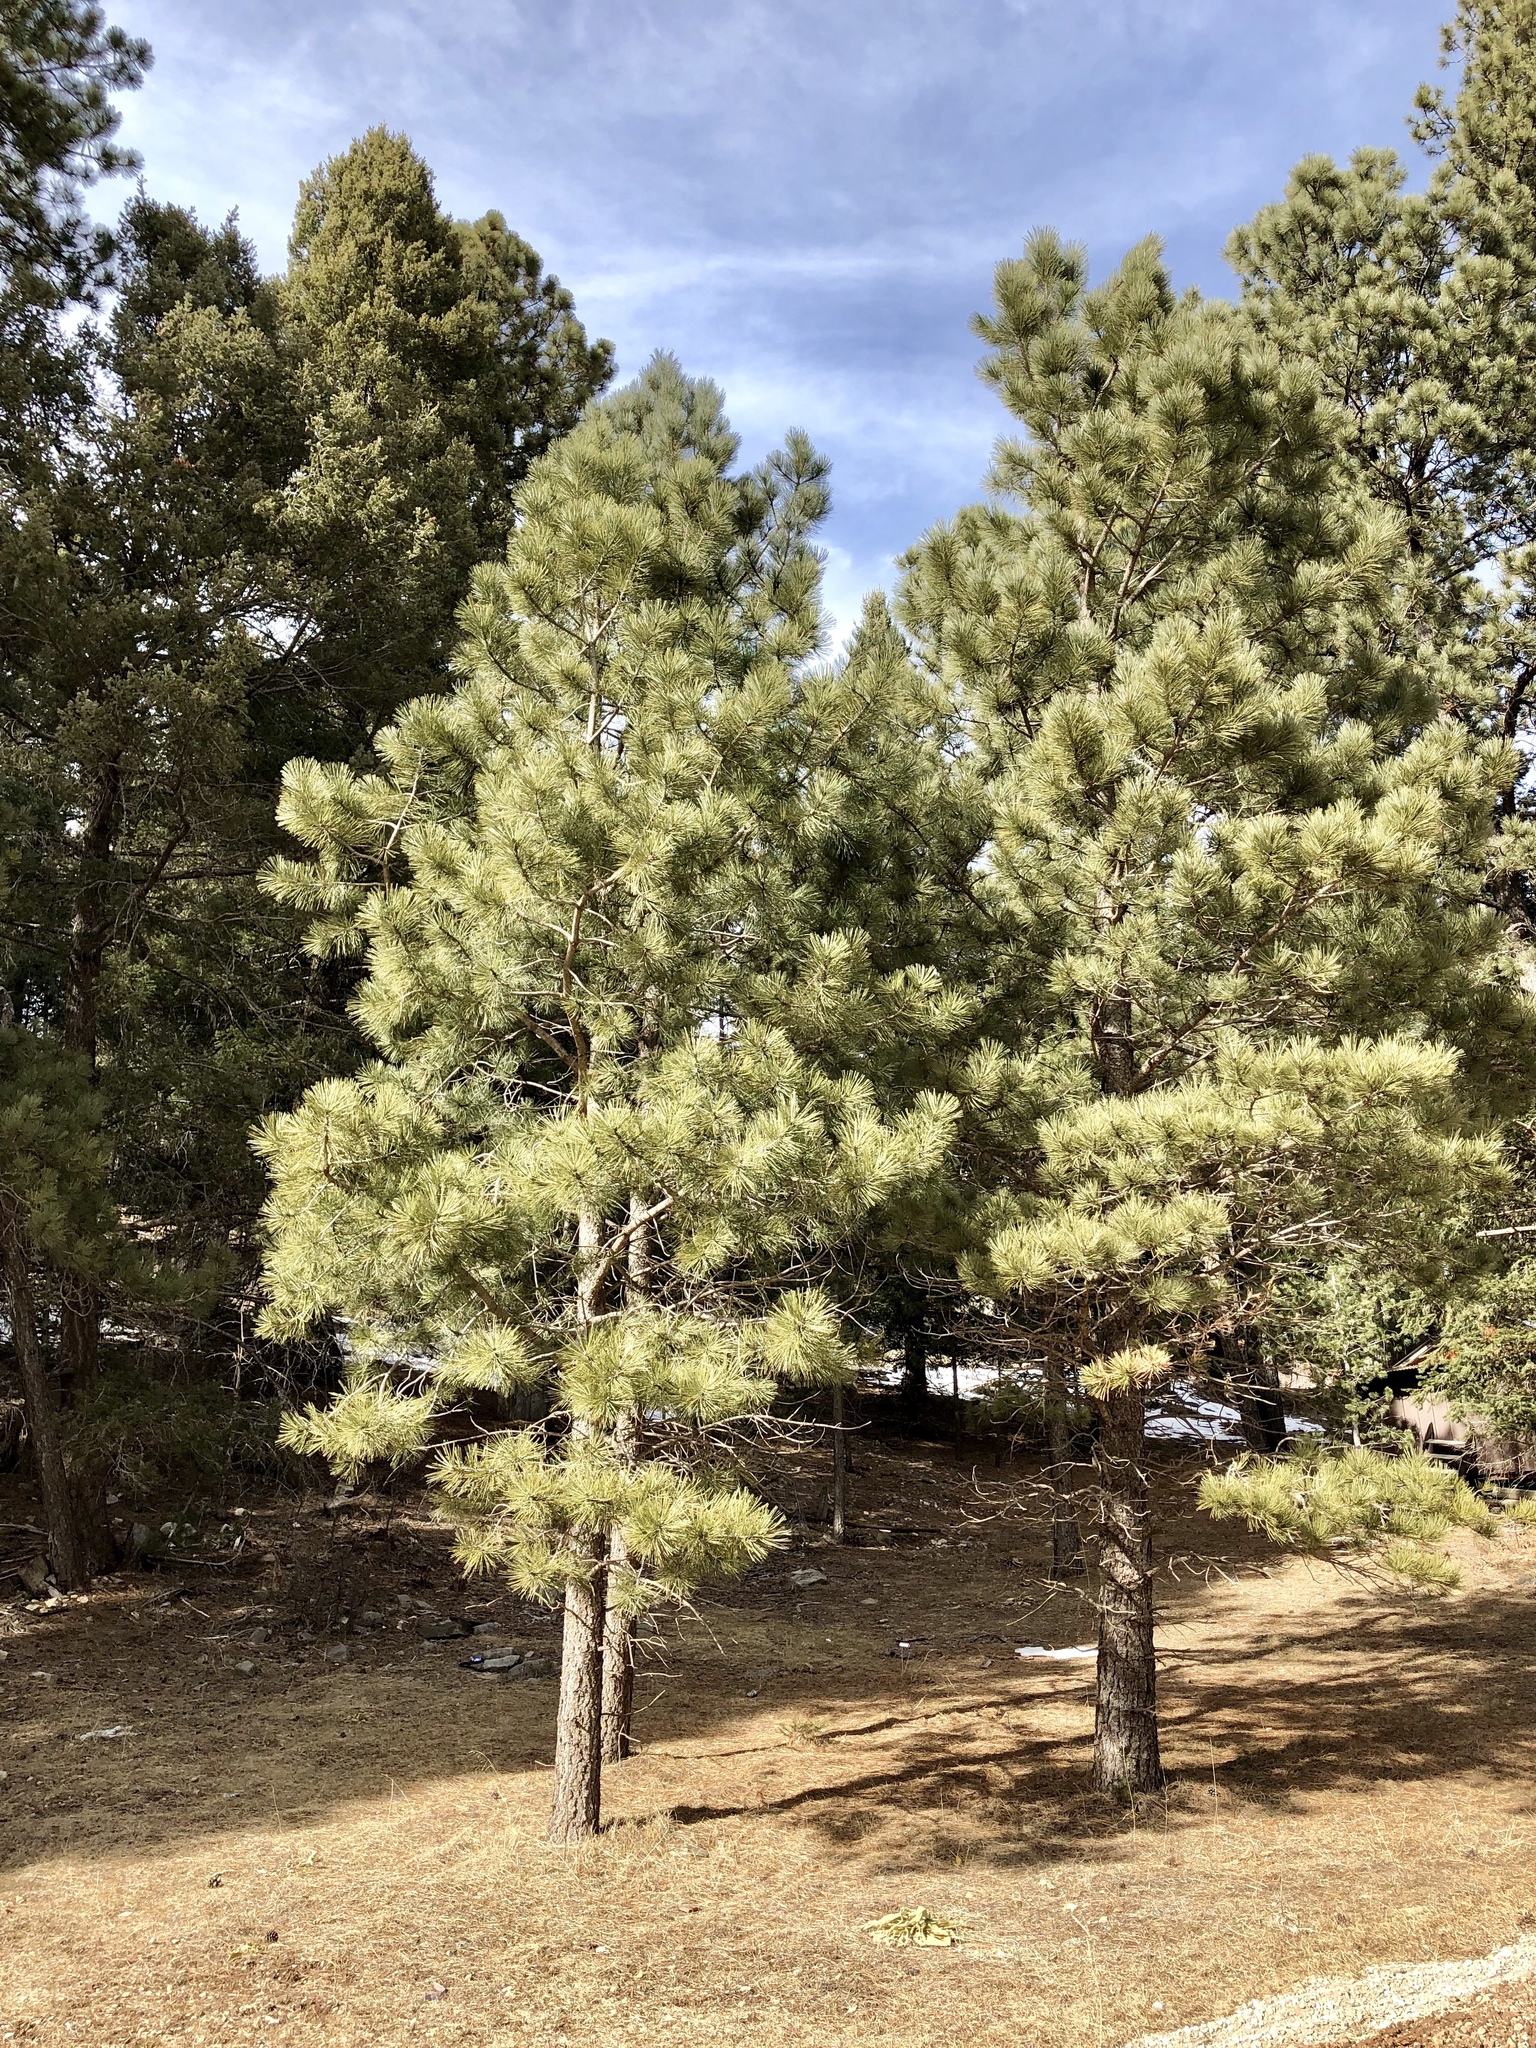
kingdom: Plantae
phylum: Tracheophyta
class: Pinopsida
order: Pinales
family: Pinaceae
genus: Pinus
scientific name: Pinus ponderosa
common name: Western yellow-pine
